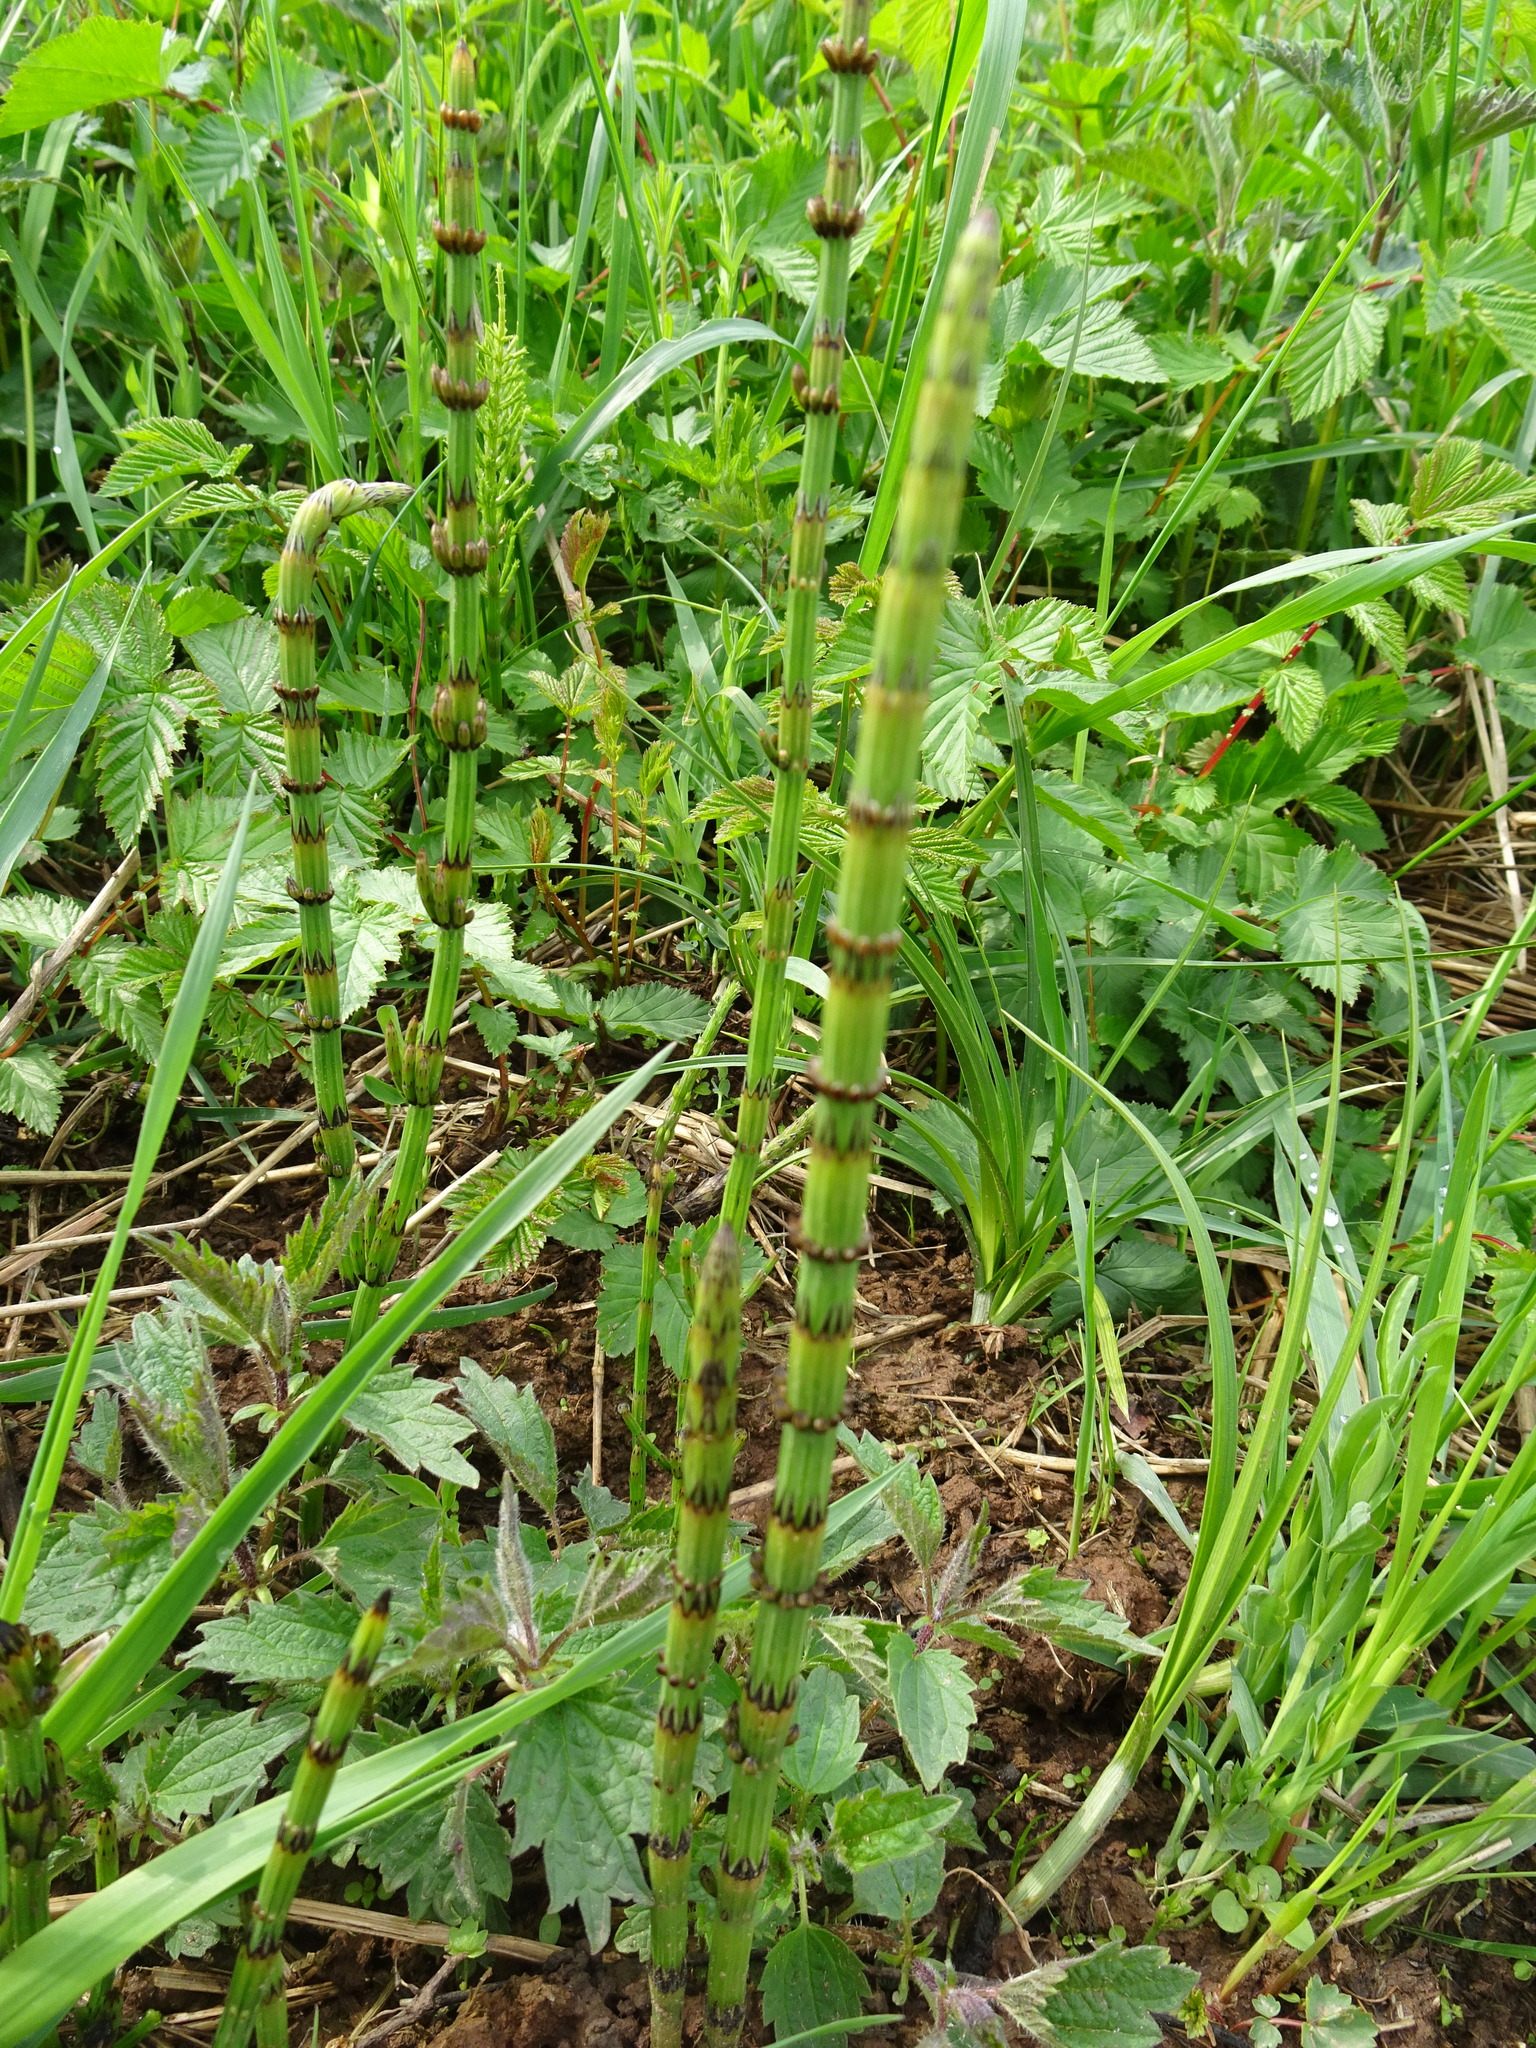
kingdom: Plantae
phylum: Tracheophyta
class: Polypodiopsida
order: Equisetales
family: Equisetaceae
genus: Equisetum
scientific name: Equisetum palustre
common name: Marsh horsetail
